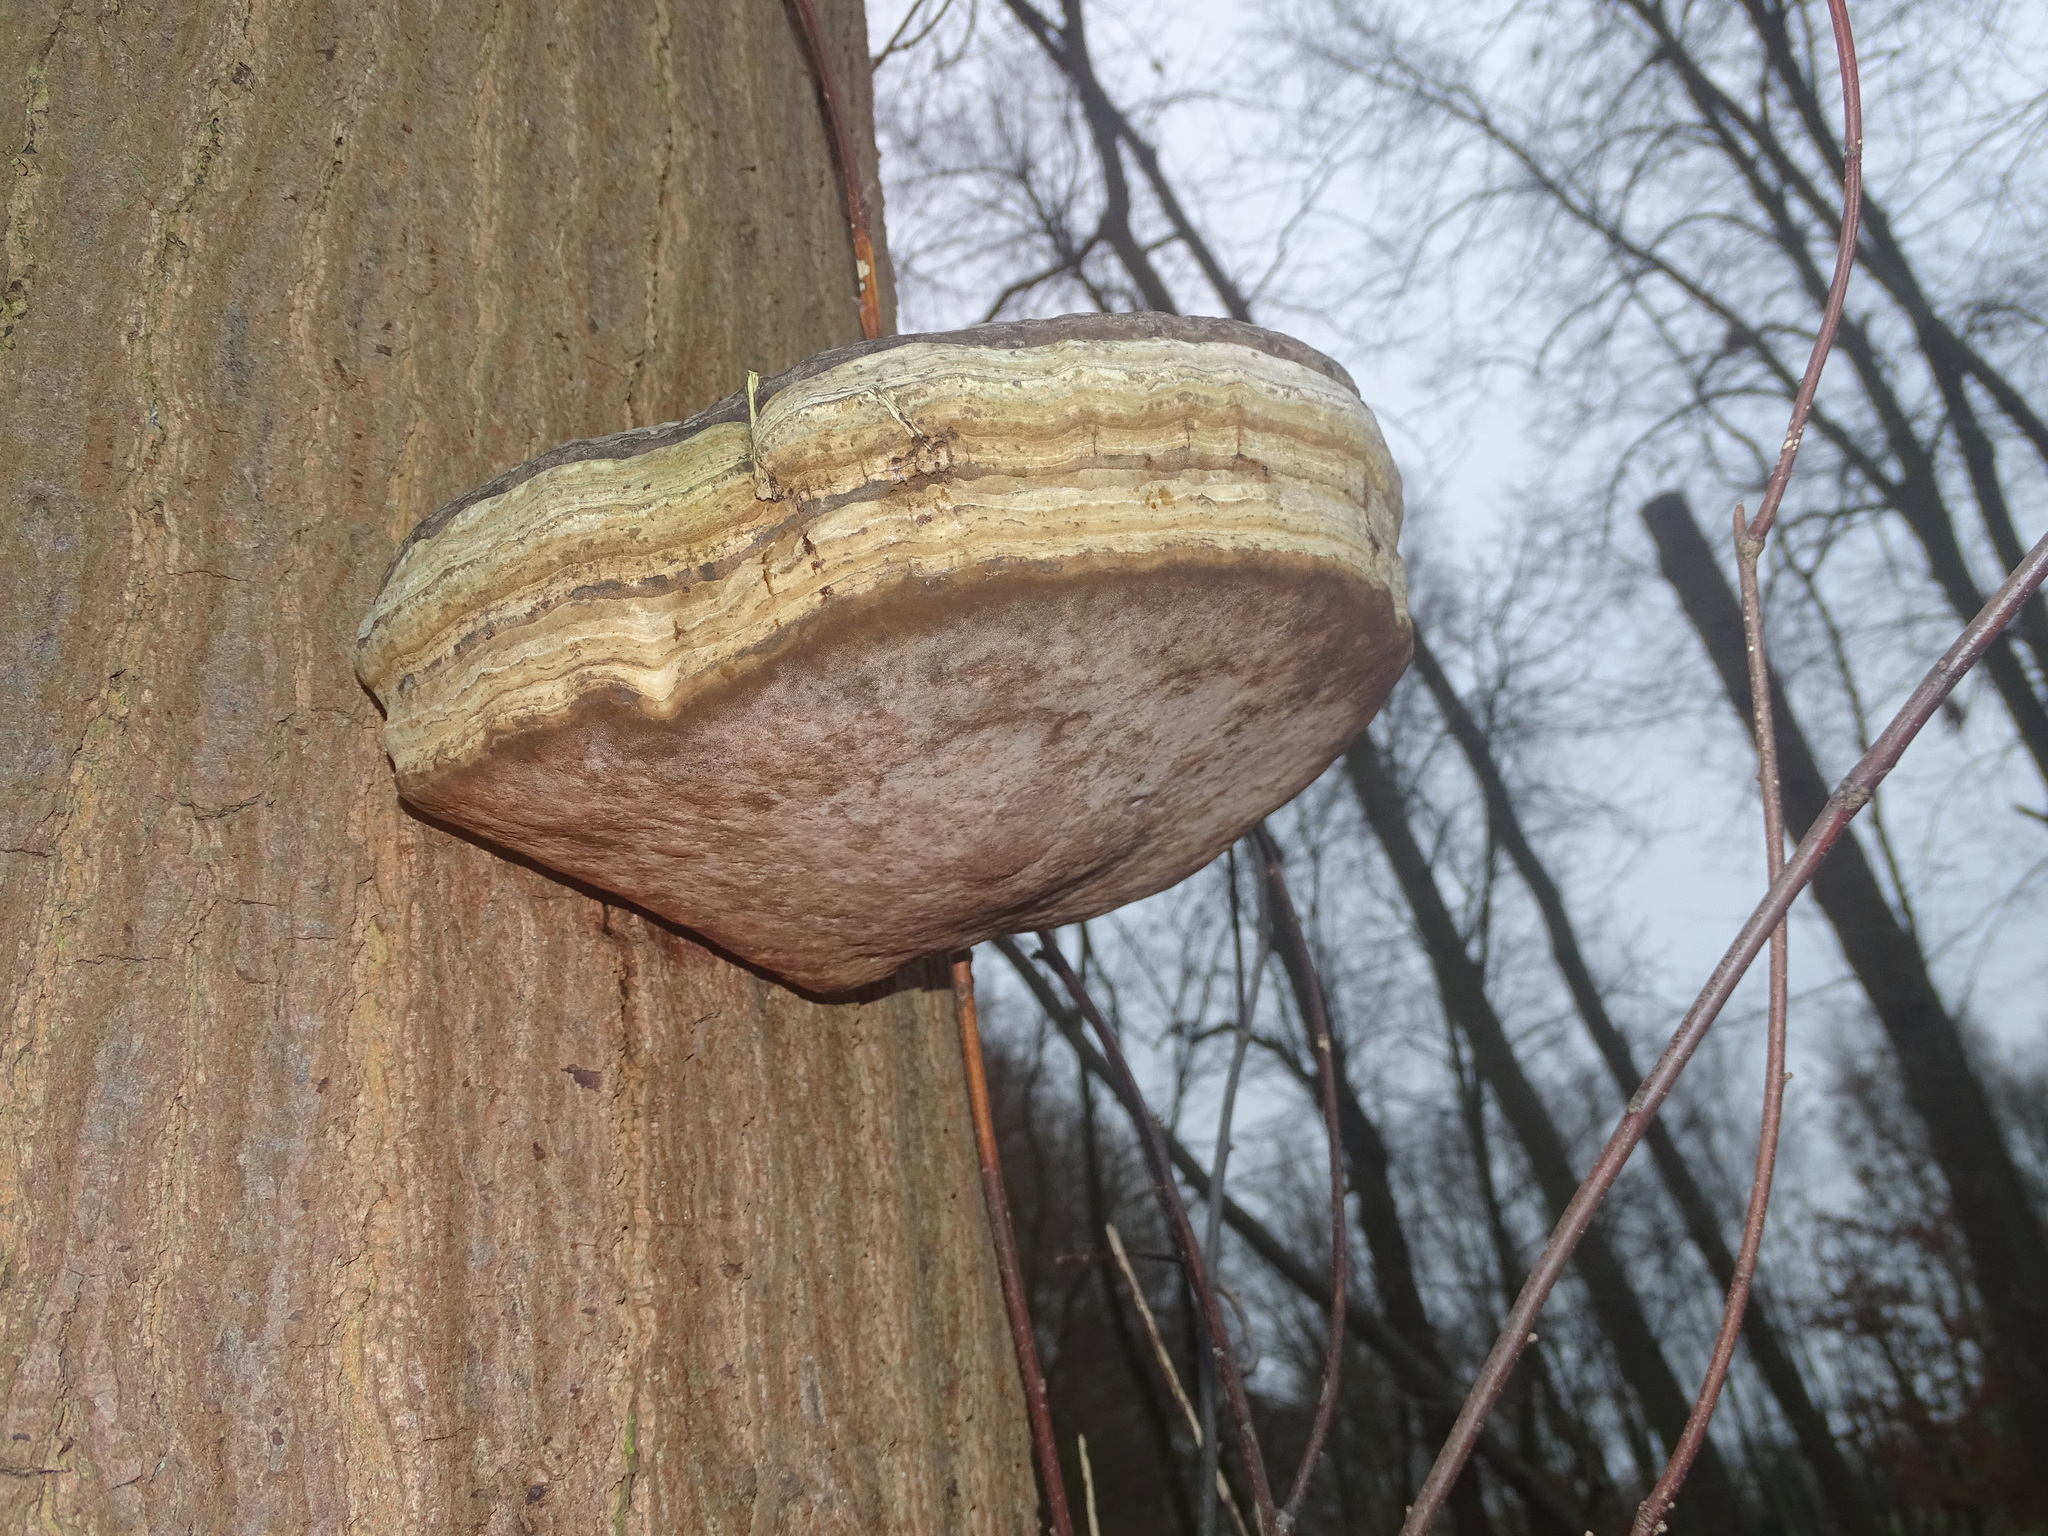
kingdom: Fungi
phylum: Basidiomycota
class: Agaricomycetes
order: Polyporales
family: Polyporaceae
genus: Fomes
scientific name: Fomes fomentarius
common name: Hoof fungus
